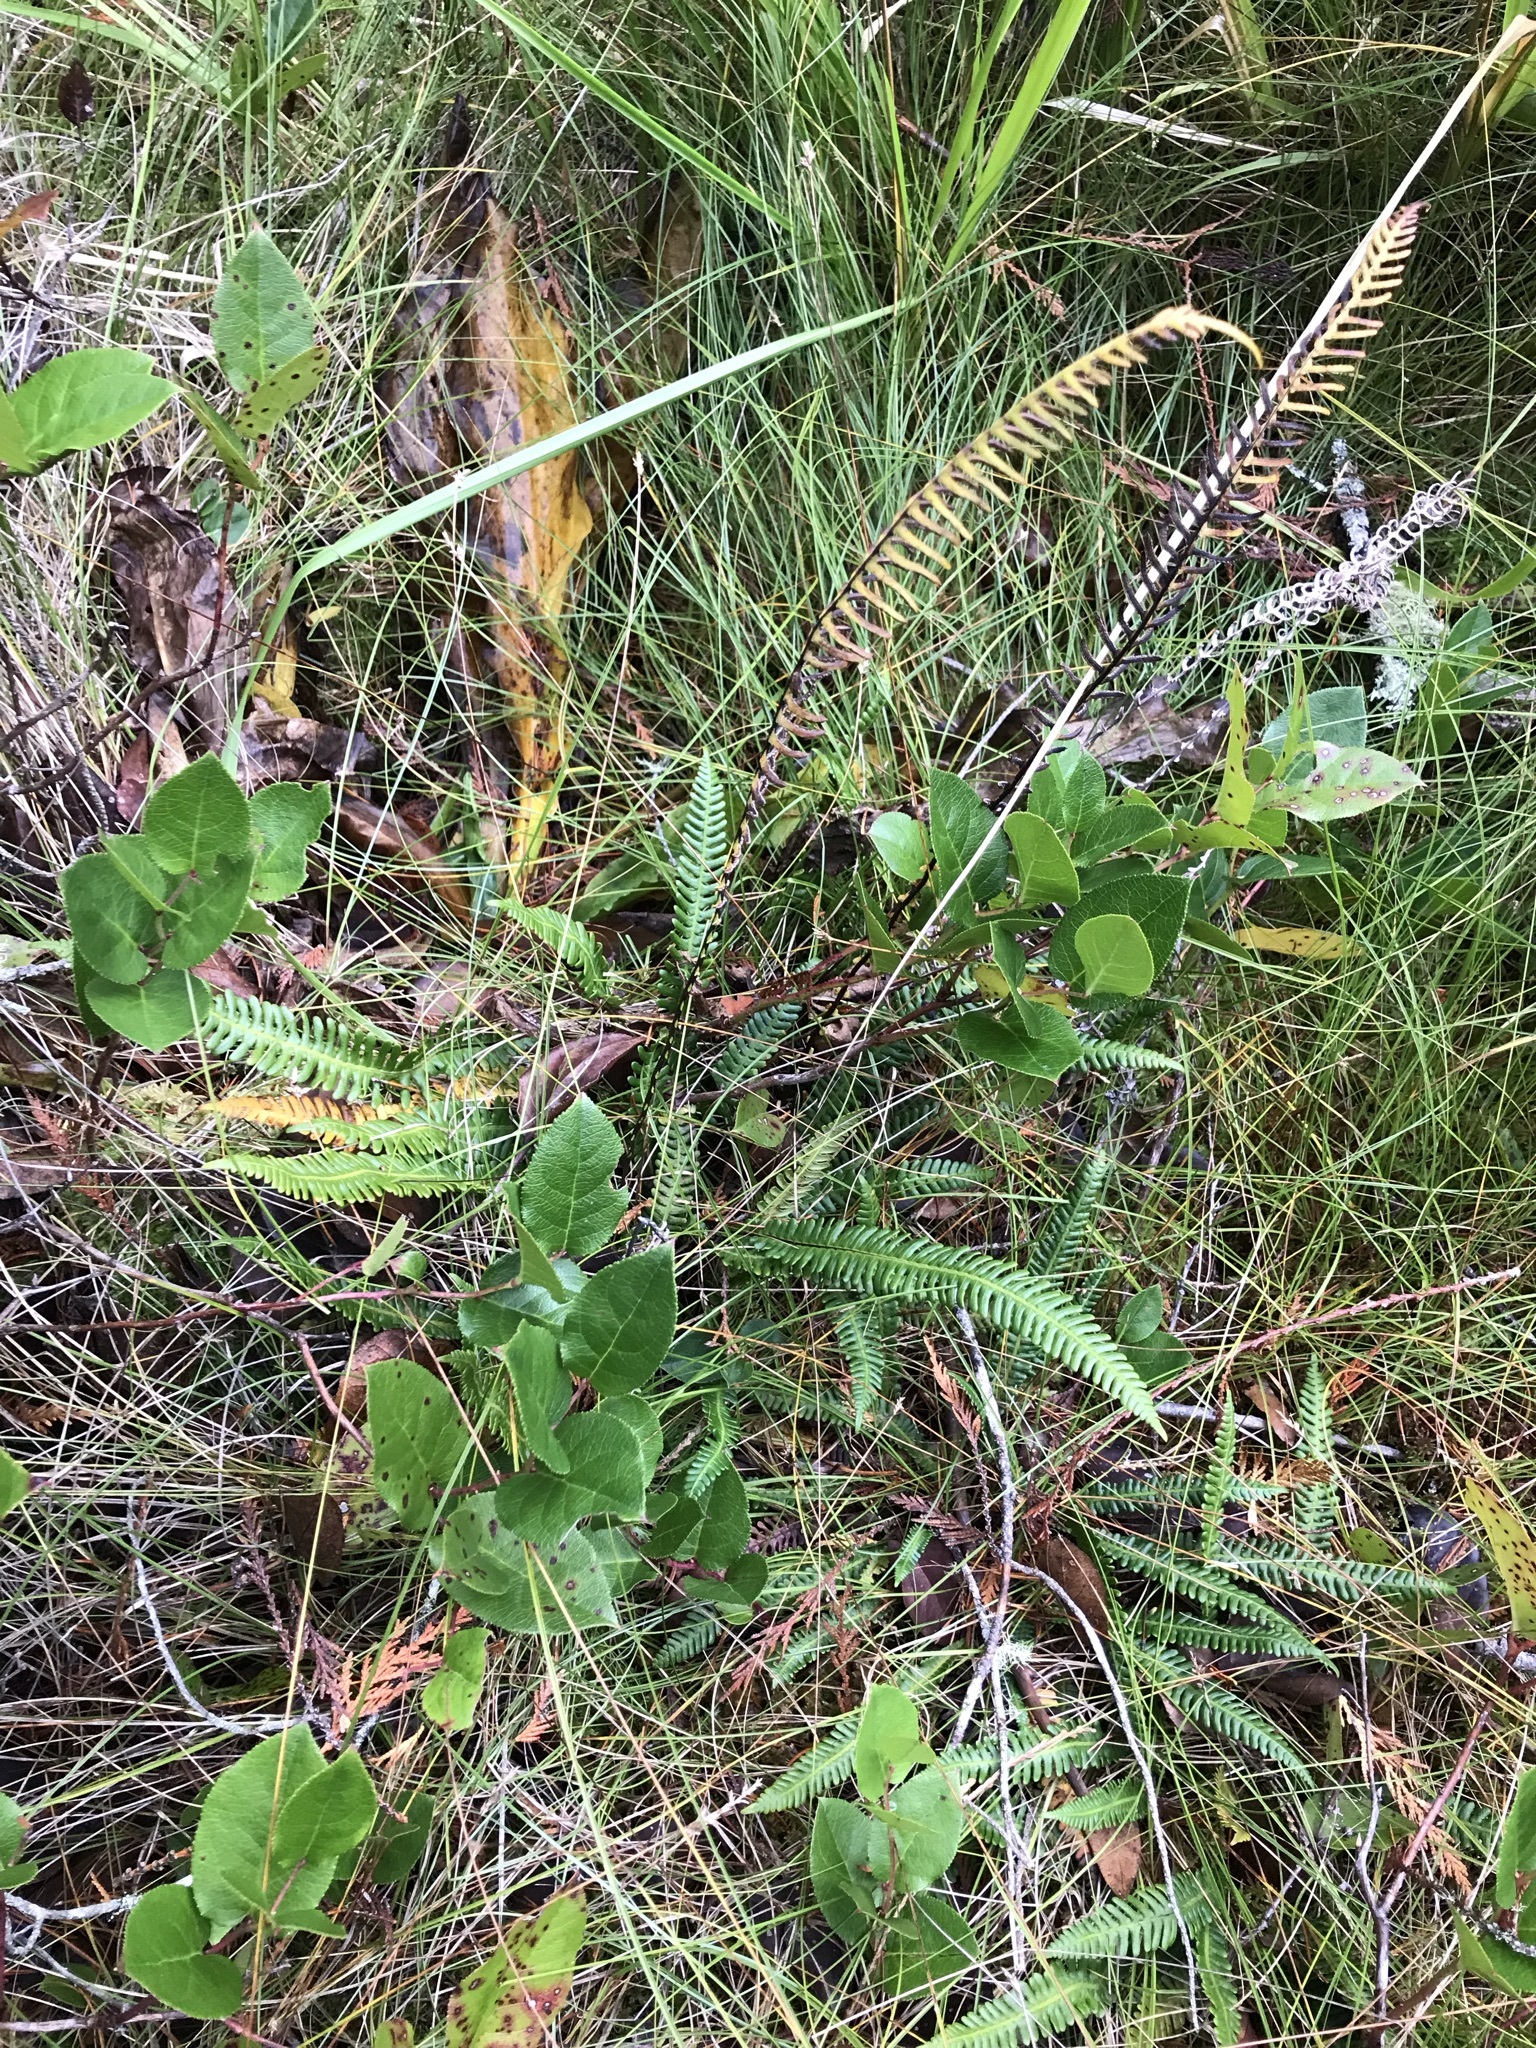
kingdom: Plantae
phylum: Tracheophyta
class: Polypodiopsida
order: Polypodiales
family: Blechnaceae
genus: Struthiopteris
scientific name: Struthiopteris spicant
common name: Deer fern
